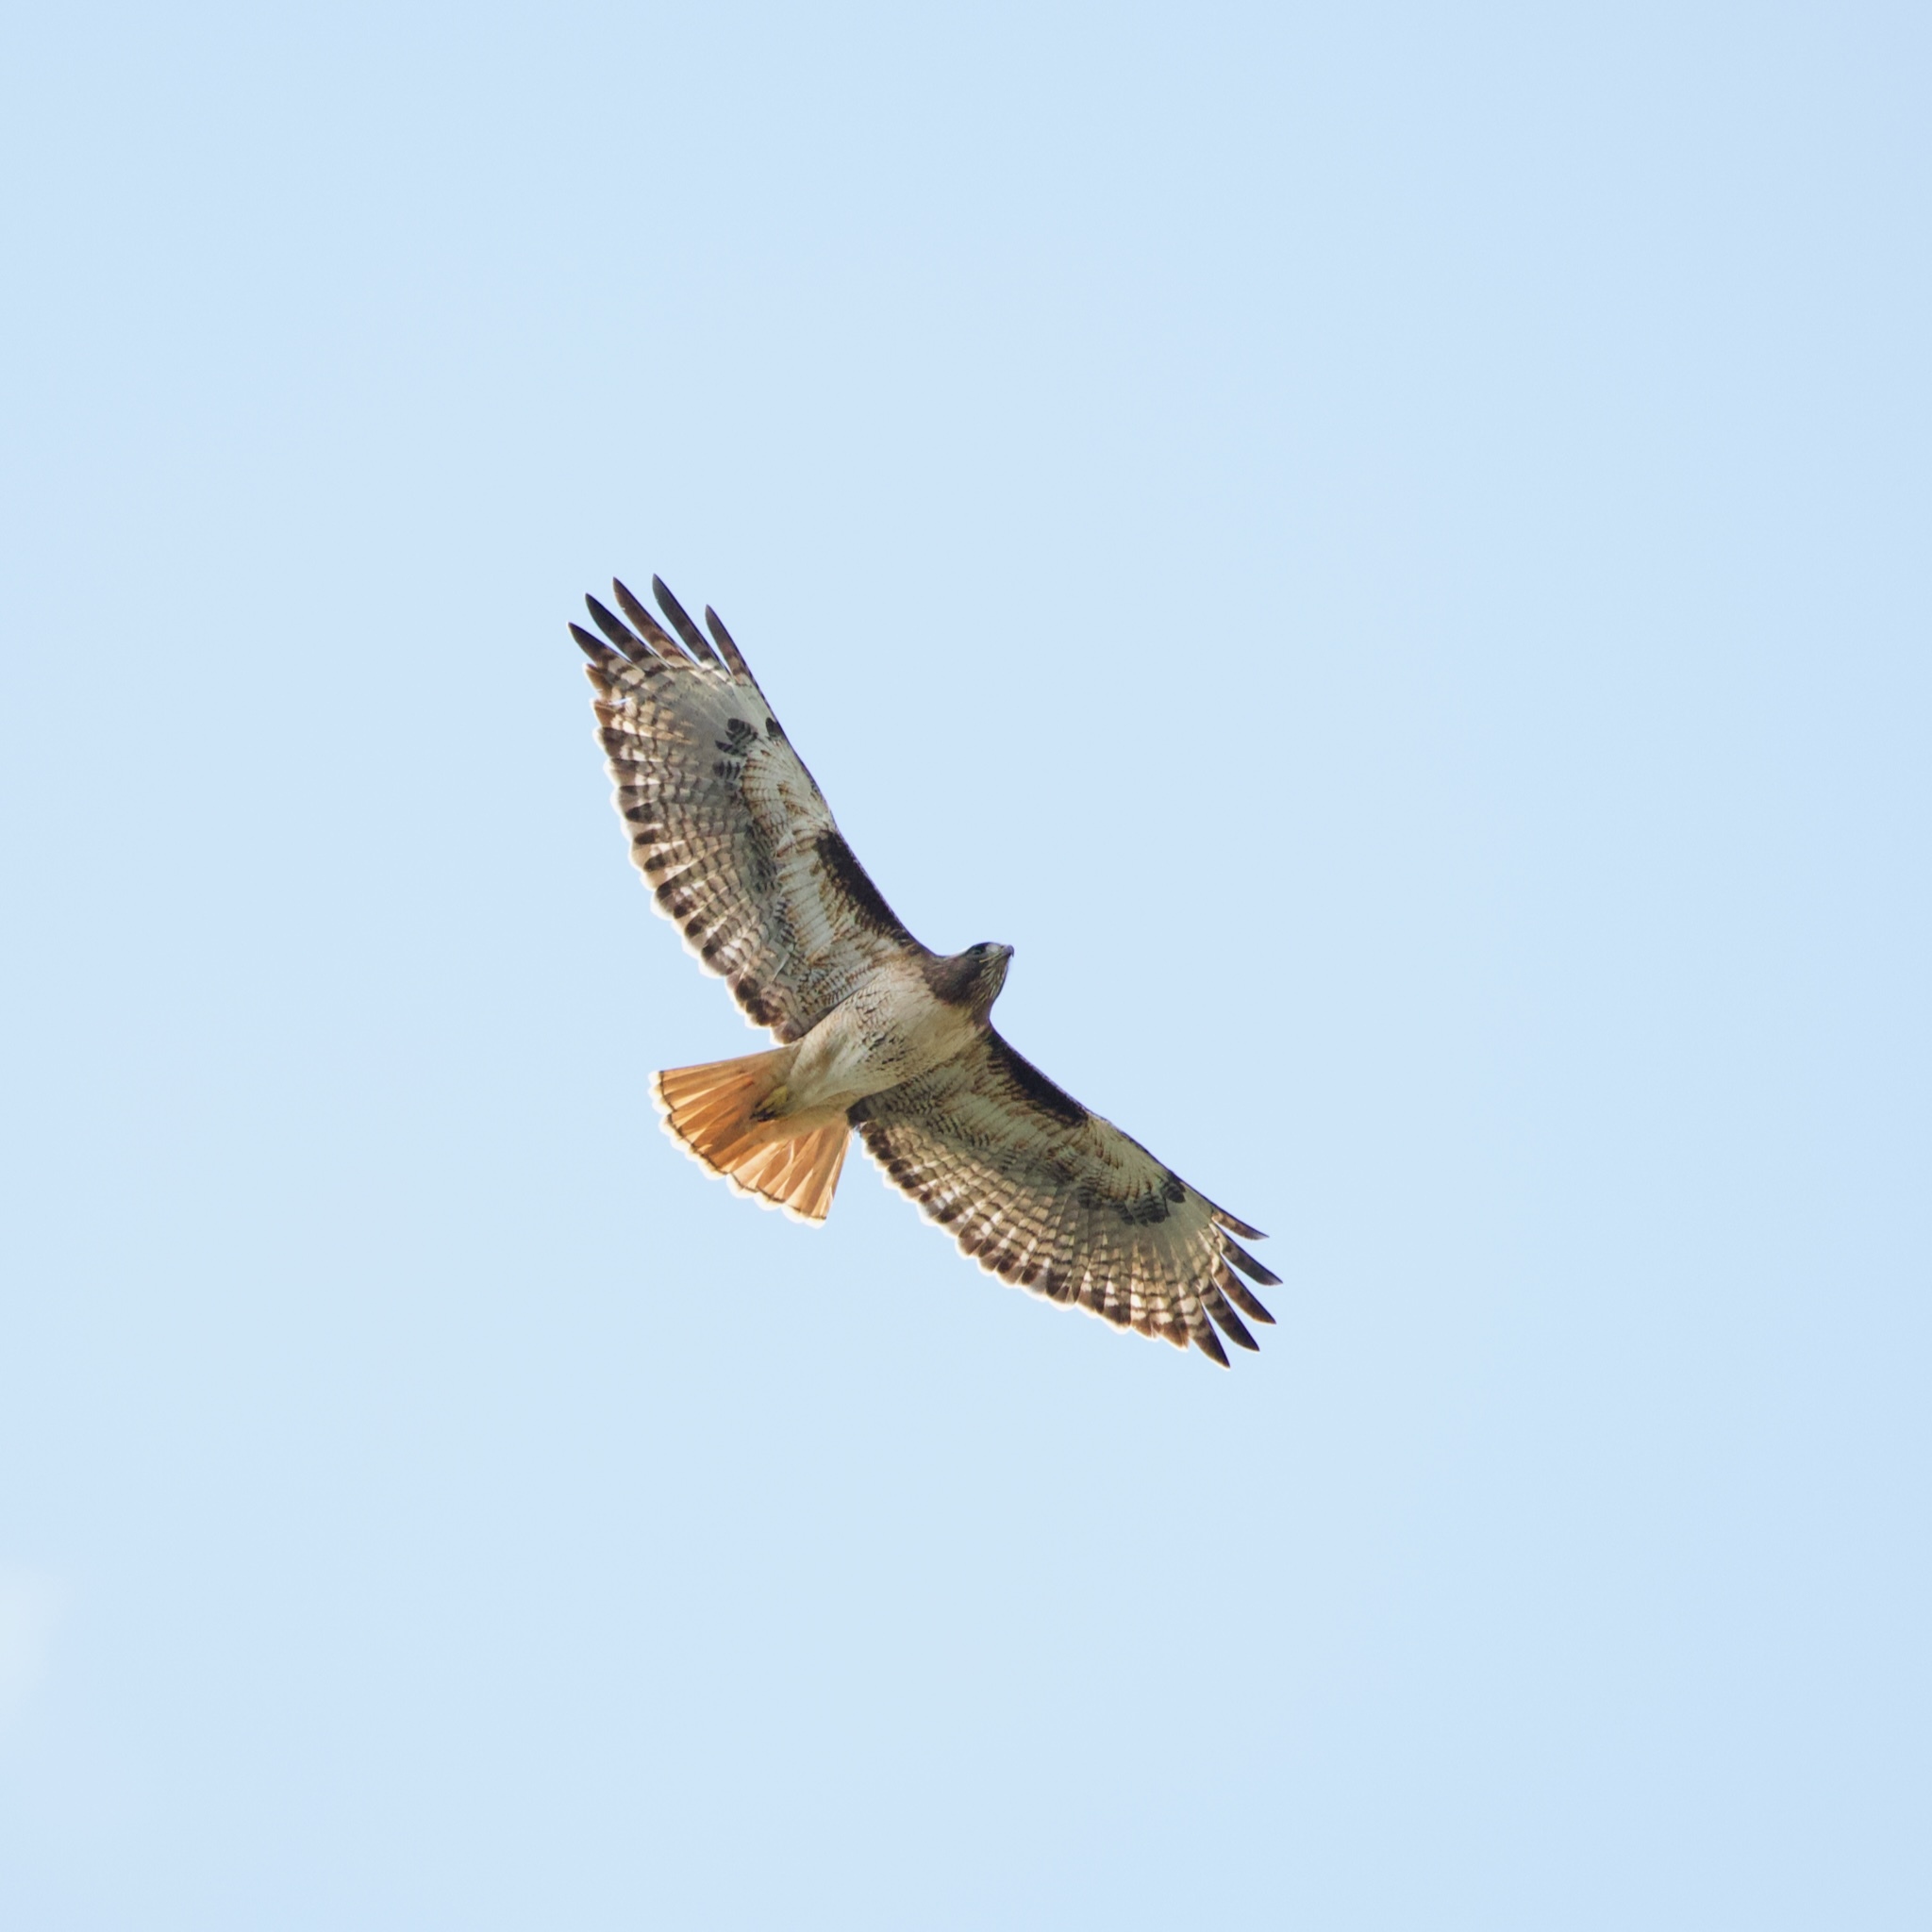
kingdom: Animalia
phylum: Chordata
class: Aves
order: Accipitriformes
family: Accipitridae
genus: Buteo
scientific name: Buteo jamaicensis
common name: Red-tailed hawk
